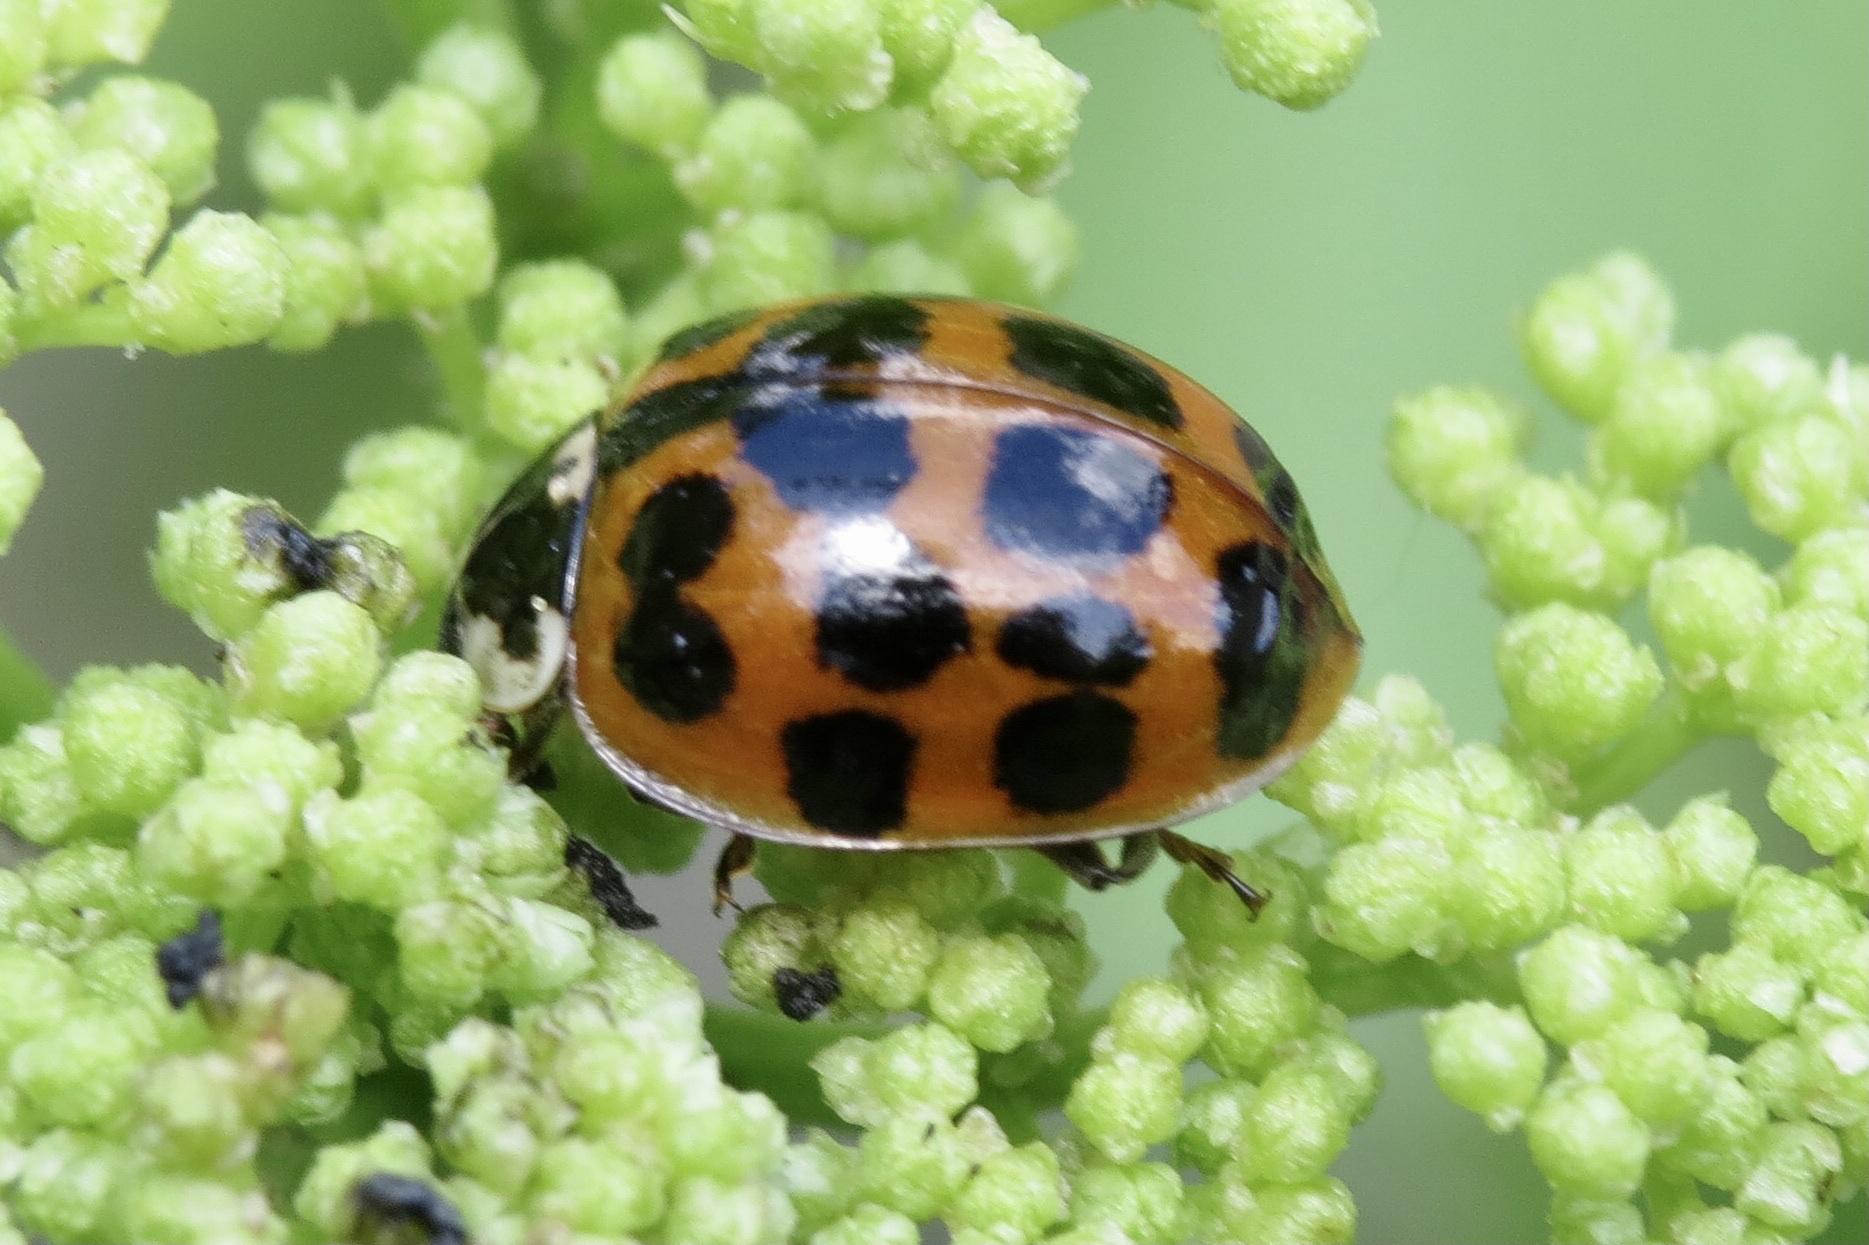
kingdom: Animalia
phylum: Arthropoda
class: Insecta
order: Coleoptera
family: Coccinellidae
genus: Harmonia
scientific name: Harmonia axyridis
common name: Harlequin ladybird
